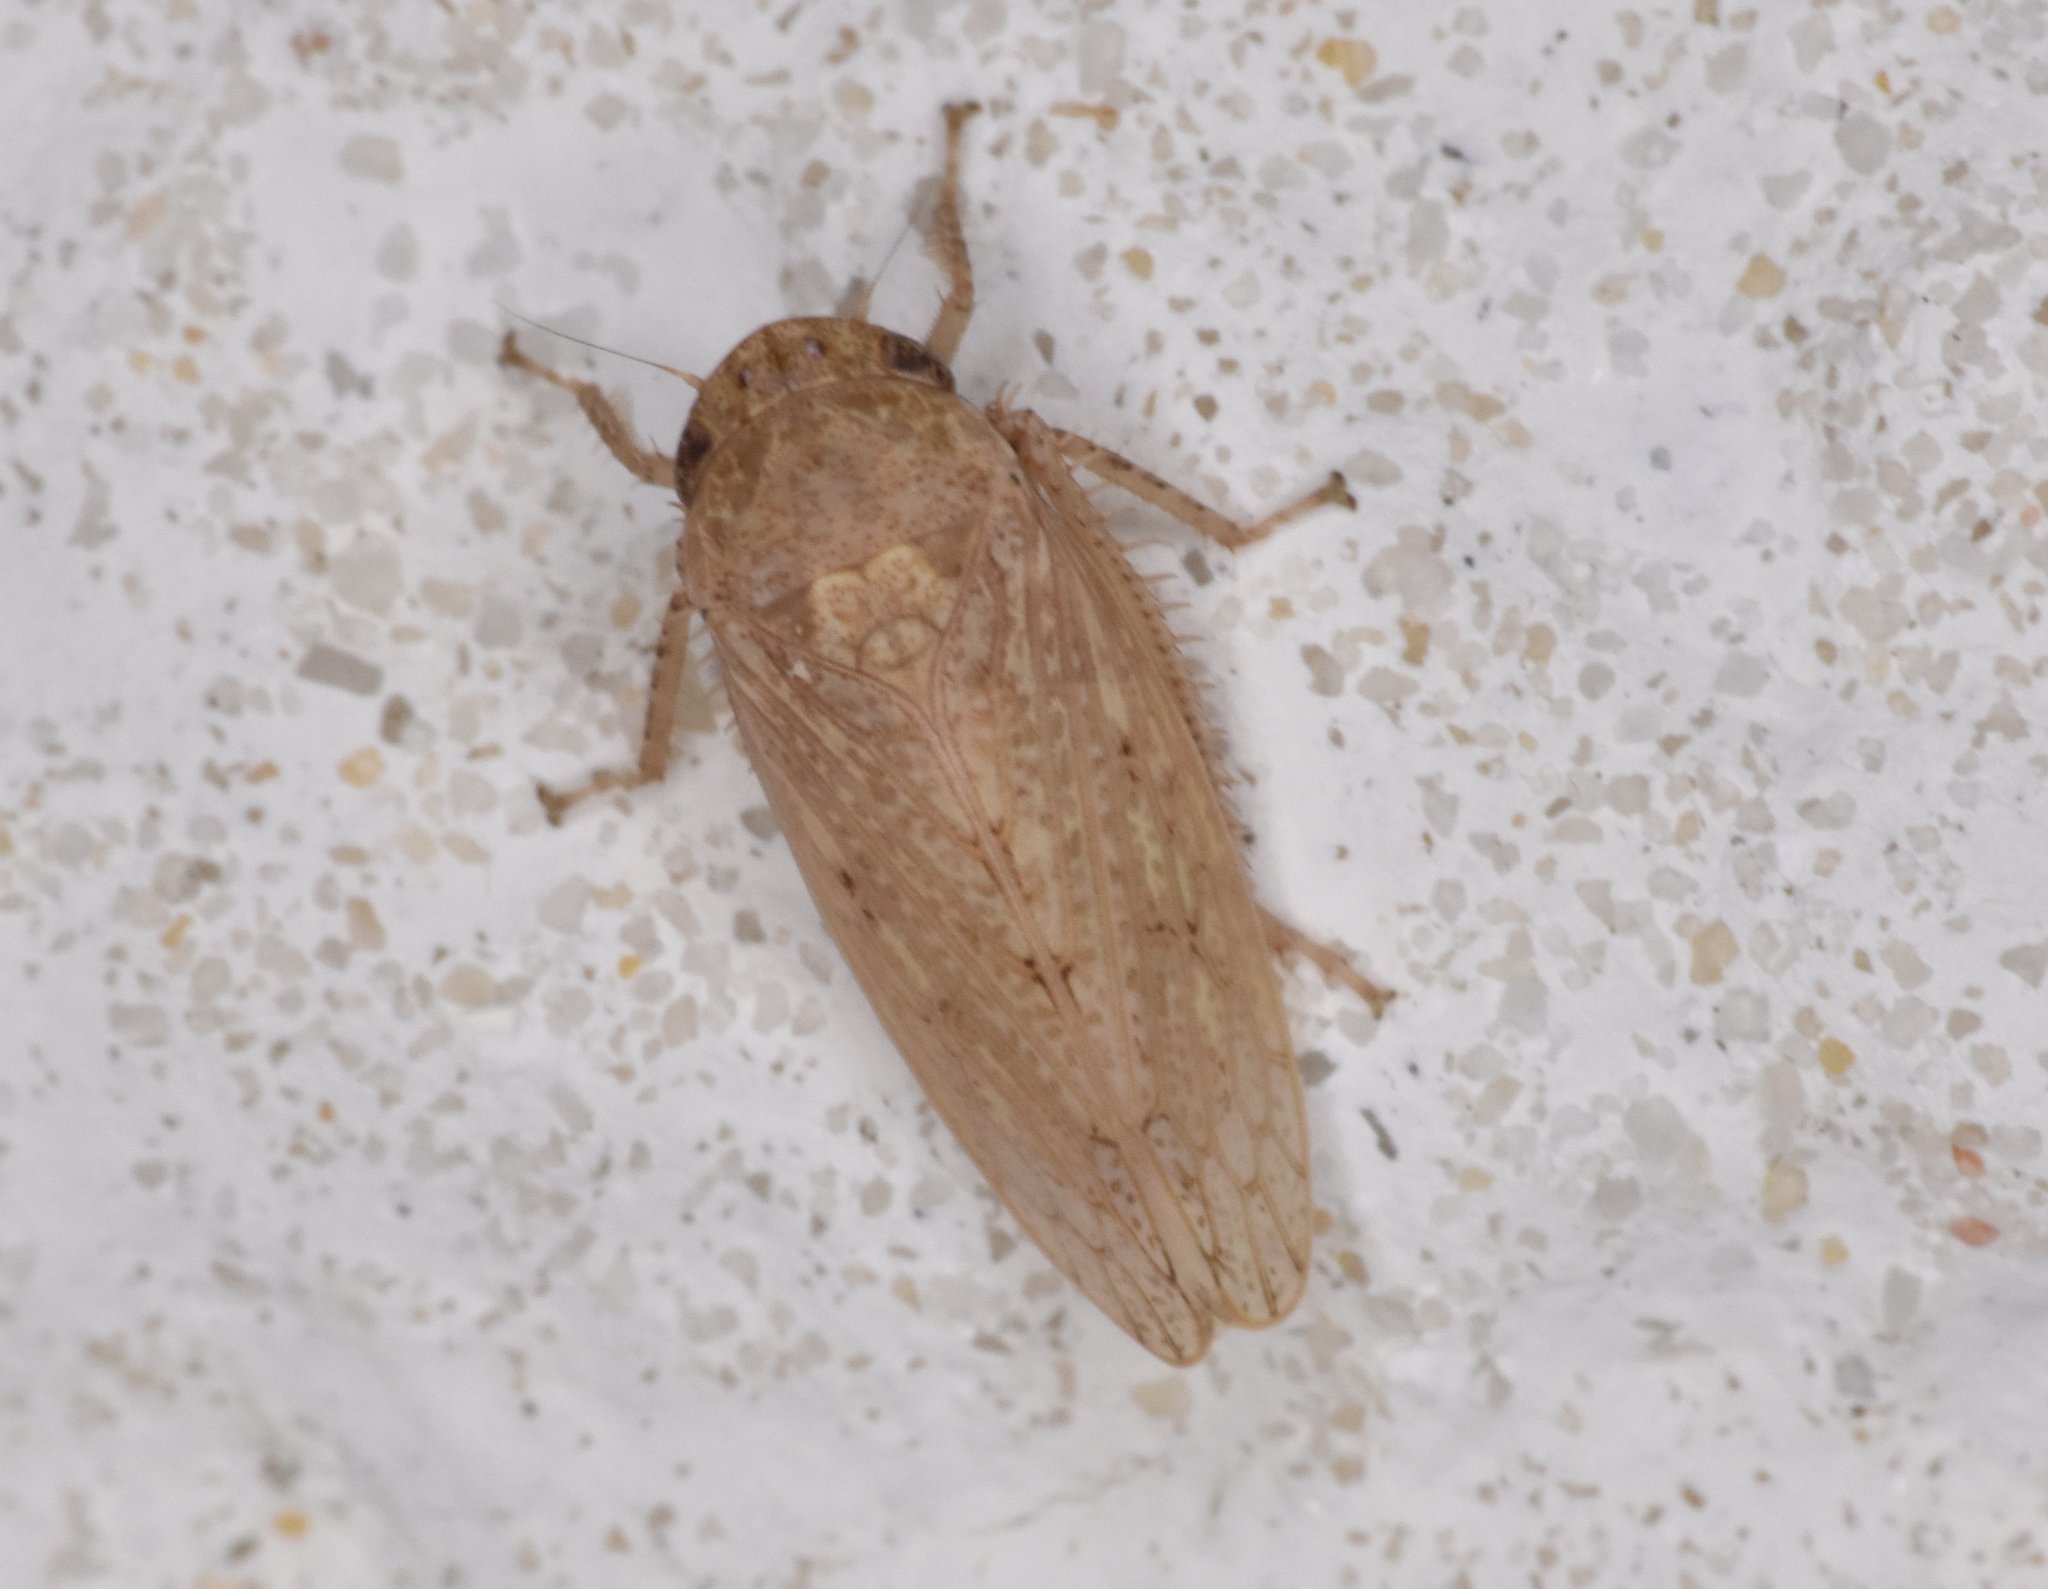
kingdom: Animalia
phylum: Arthropoda
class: Insecta
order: Hemiptera
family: Cicadellidae
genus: Curtara
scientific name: Curtara insularis
